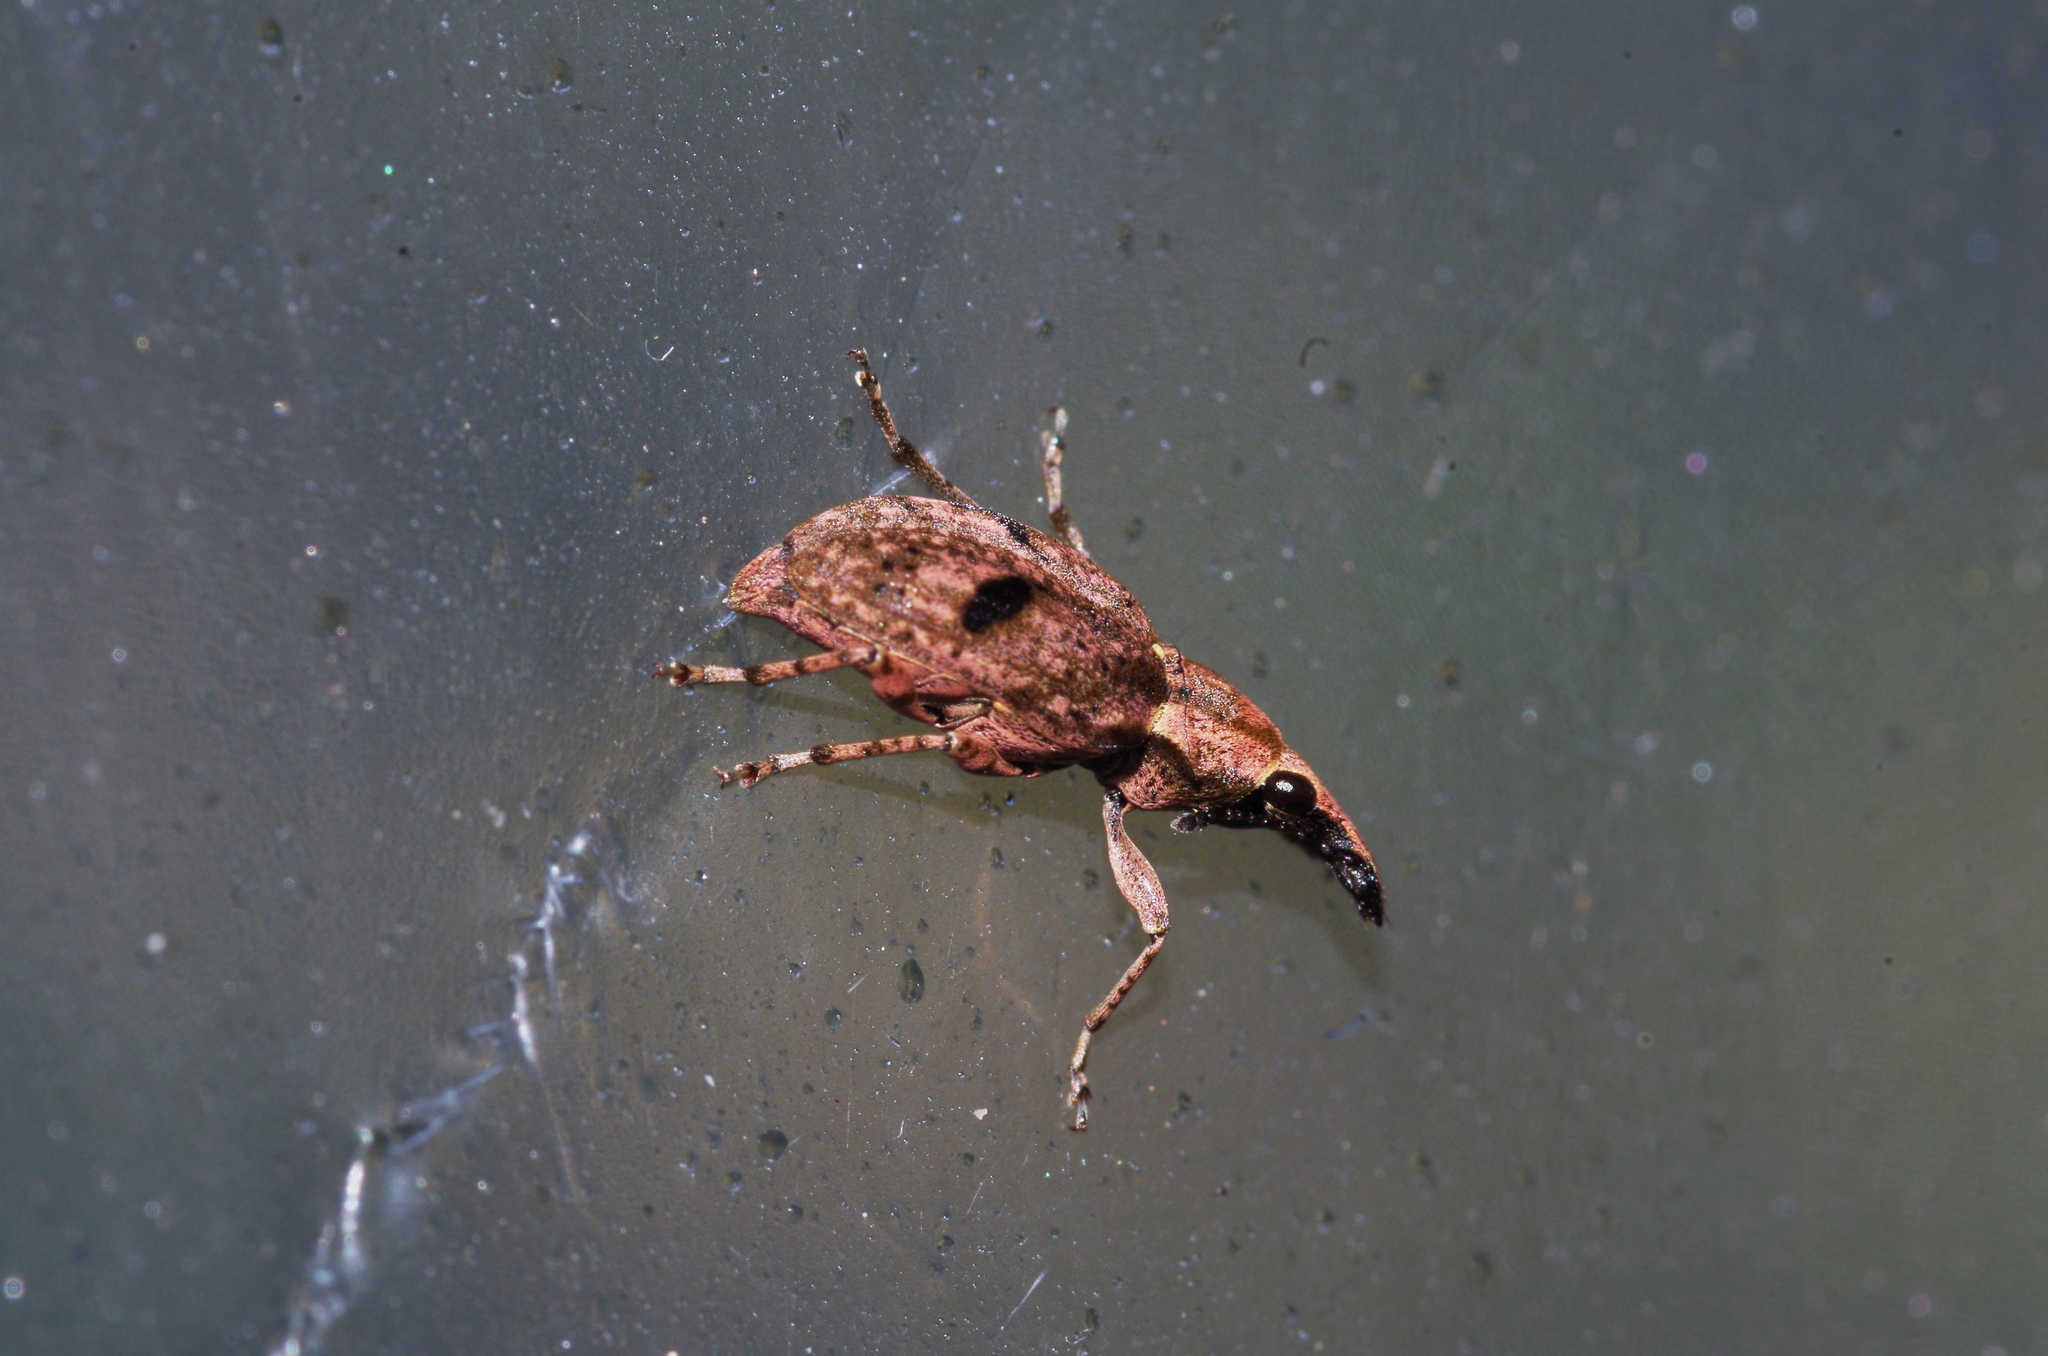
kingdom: Animalia
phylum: Arthropoda
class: Insecta
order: Coleoptera
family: Anthribidae
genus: Sintor
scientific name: Sintor
